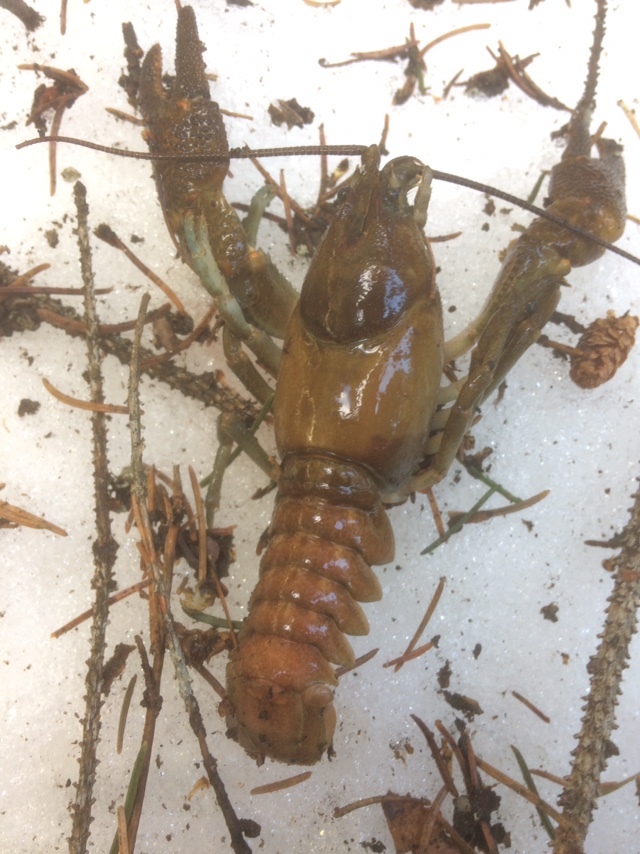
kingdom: Animalia
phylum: Arthropoda
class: Malacostraca
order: Decapoda
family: Astacidae
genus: Austropotamobius
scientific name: Austropotamobius pallipes
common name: White-clawed crayfish
